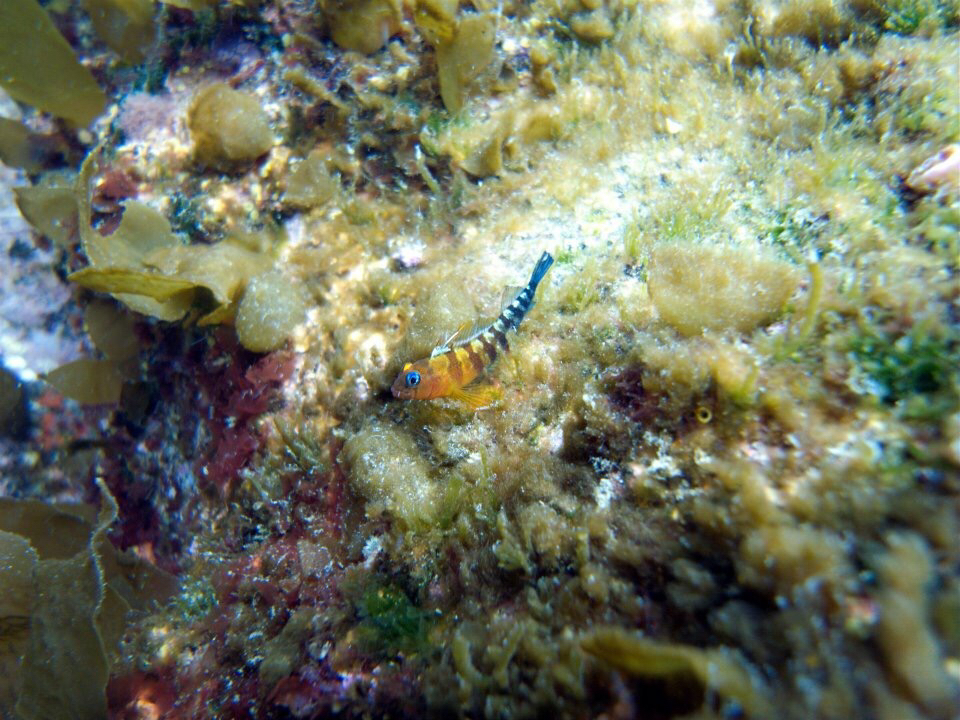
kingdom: Animalia
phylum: Chordata
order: Perciformes
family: Tripterygiidae
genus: Notoclinops
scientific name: Notoclinops segmentatus
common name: Blue-eyed triplefin
